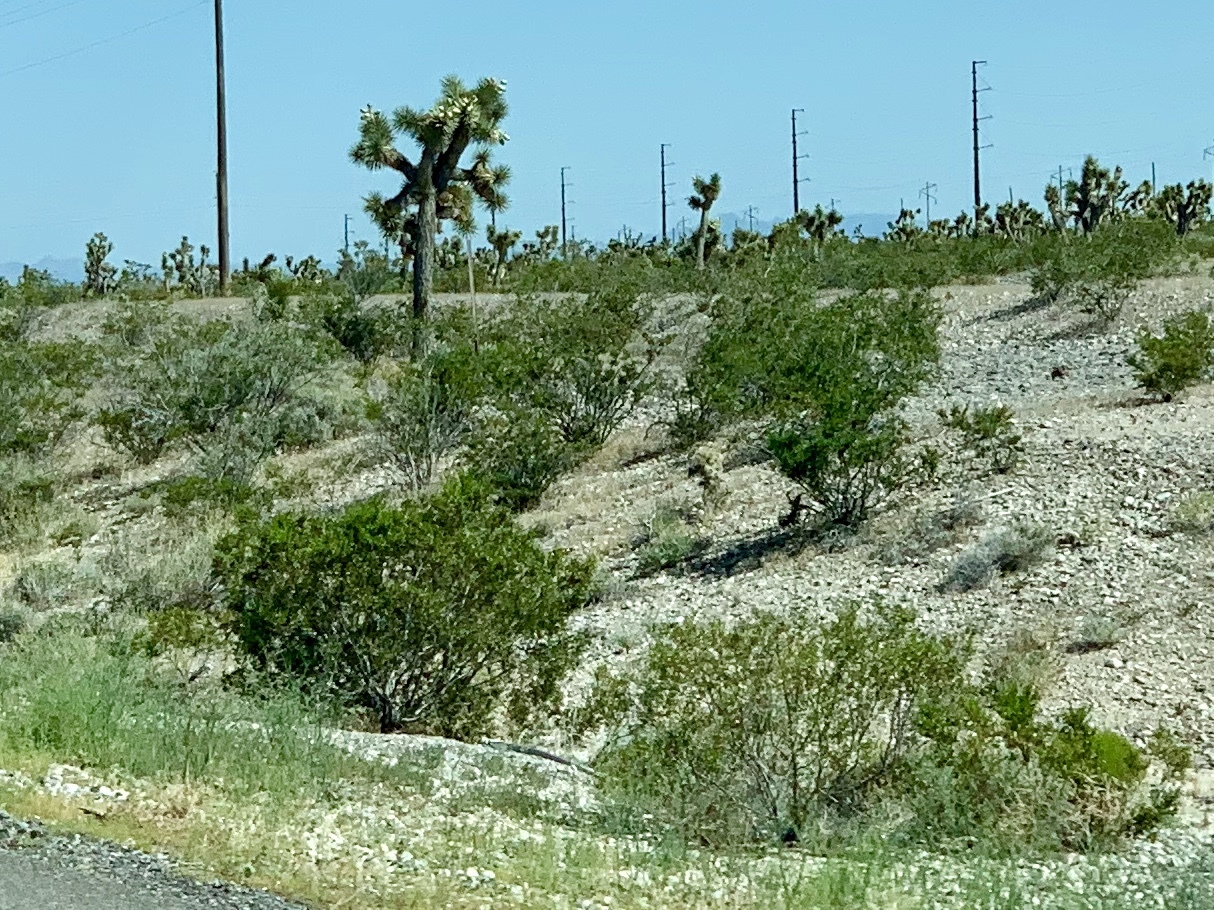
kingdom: Plantae
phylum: Tracheophyta
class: Magnoliopsida
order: Zygophyllales
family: Zygophyllaceae
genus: Larrea
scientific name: Larrea tridentata
